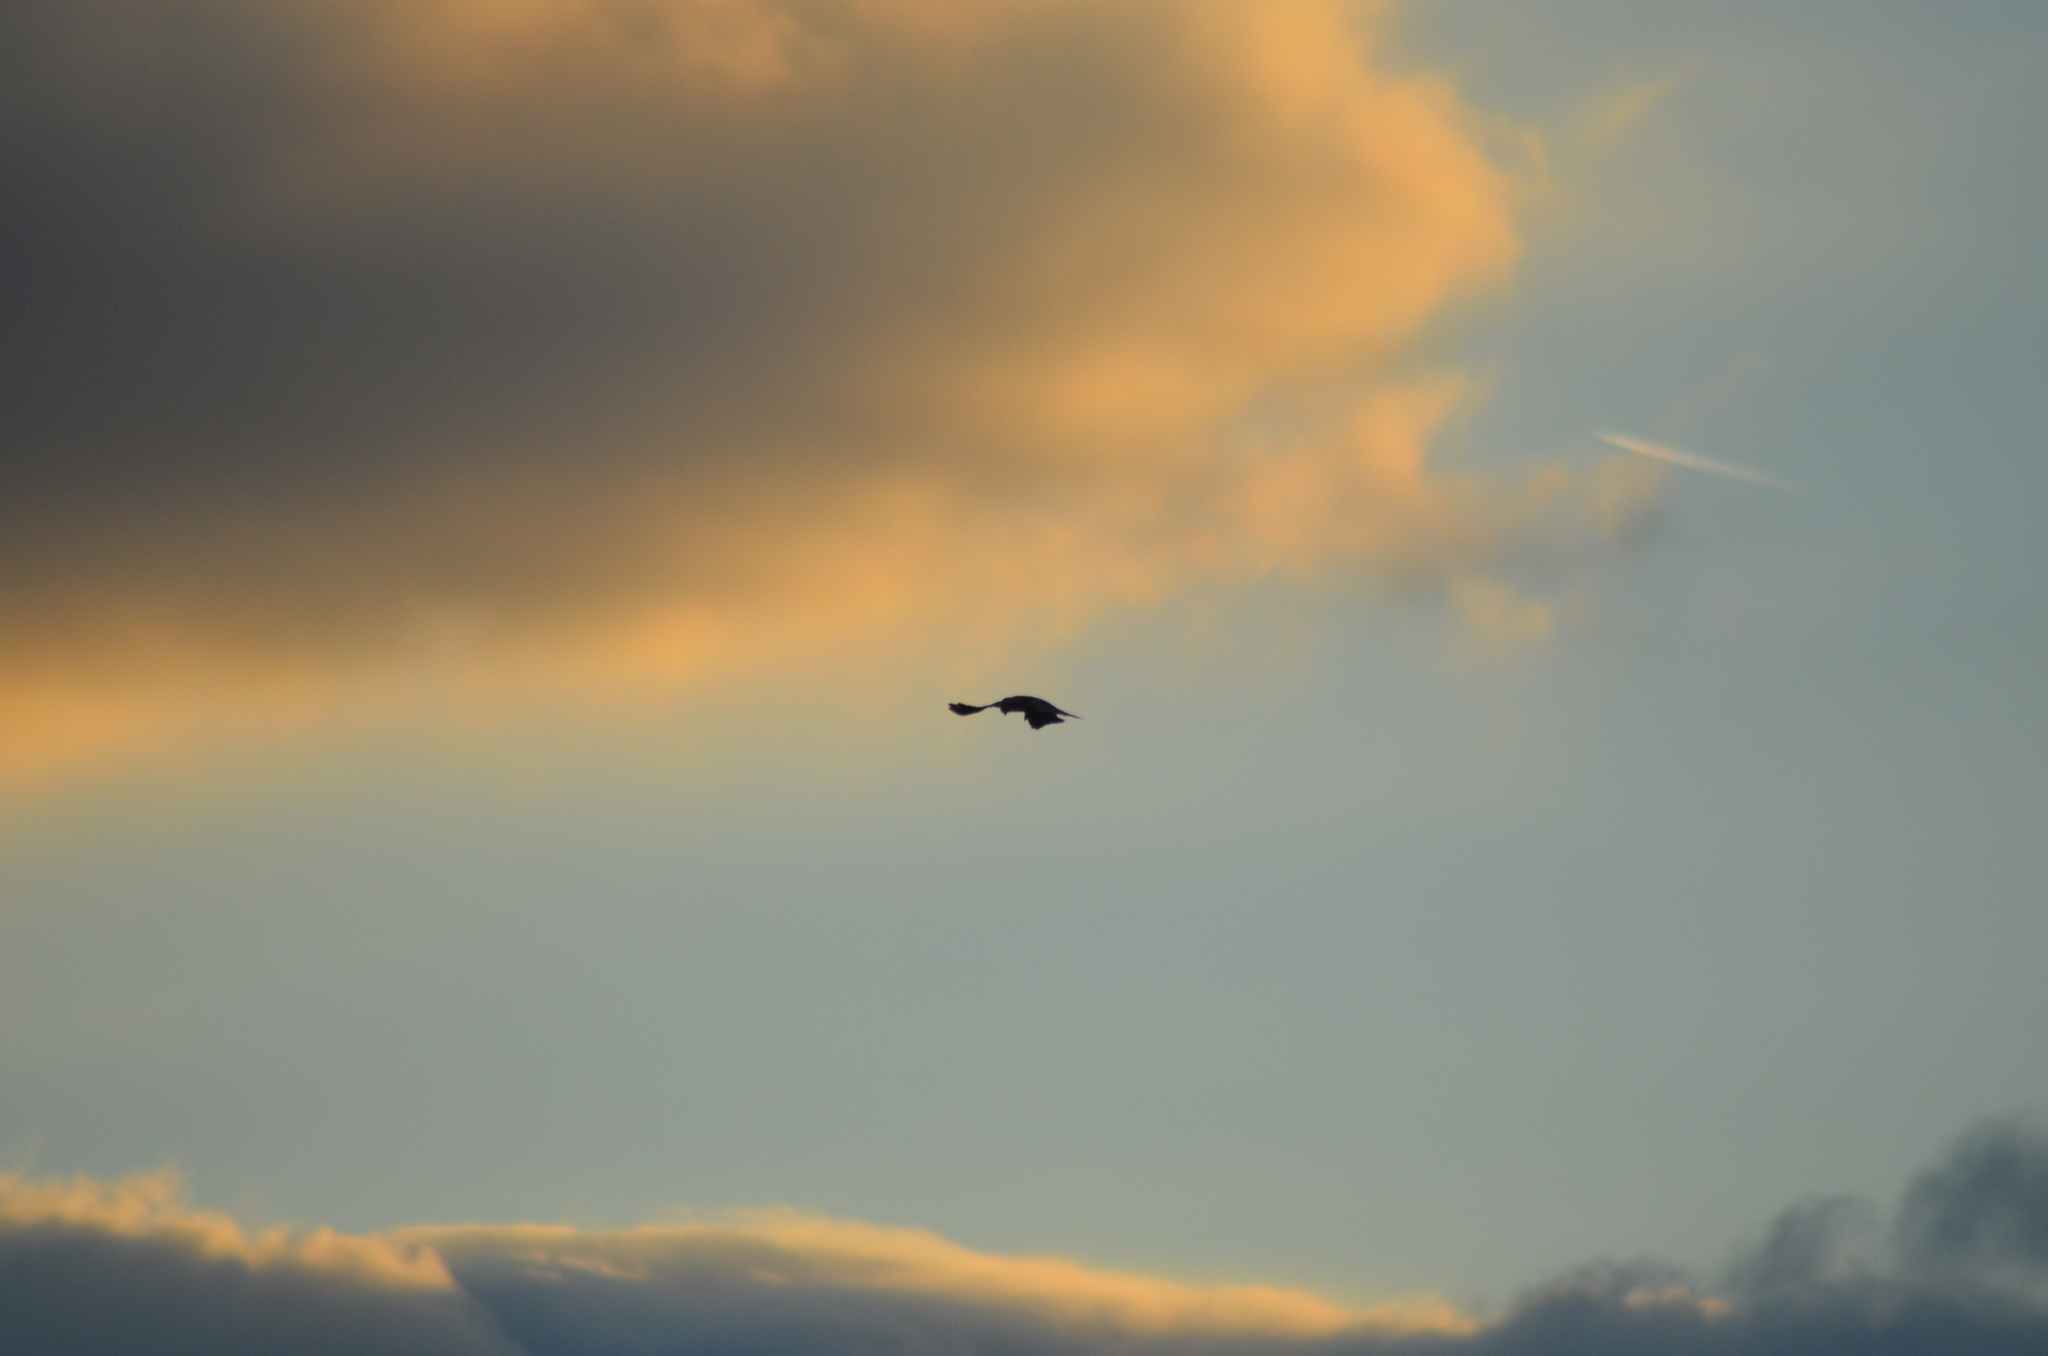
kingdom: Animalia
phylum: Chordata
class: Aves
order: Falconiformes
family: Falconidae
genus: Falco
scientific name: Falco tinnunculus
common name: Common kestrel
